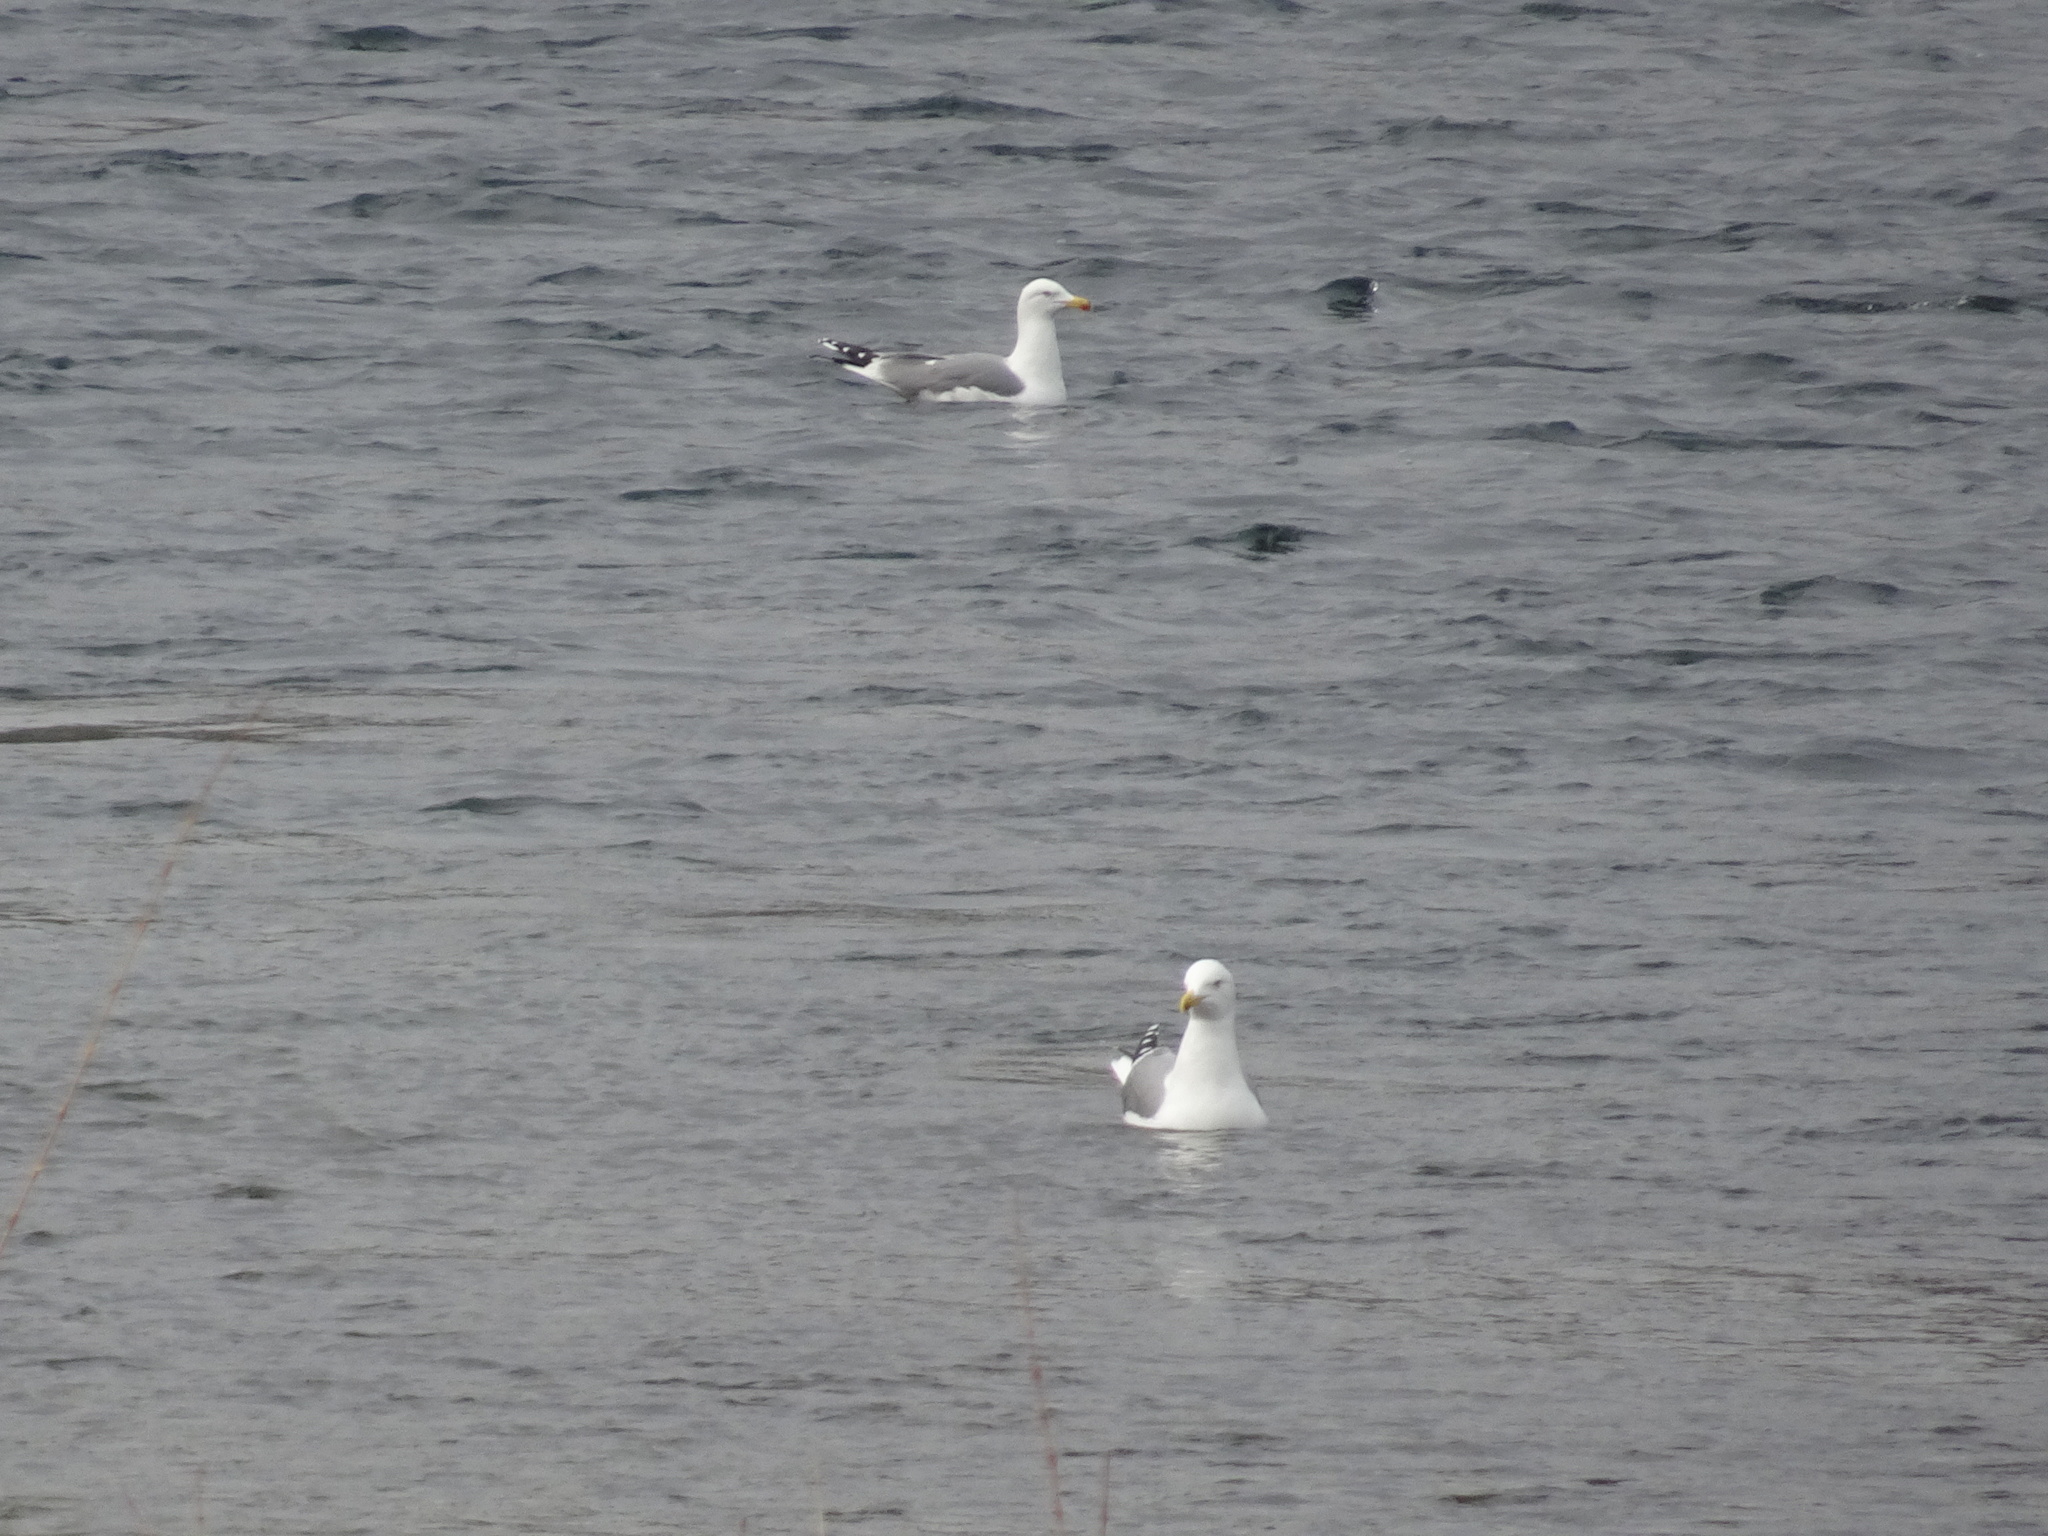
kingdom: Animalia
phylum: Chordata
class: Aves
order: Charadriiformes
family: Laridae
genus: Larus
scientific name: Larus michahellis
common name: Yellow-legged gull
